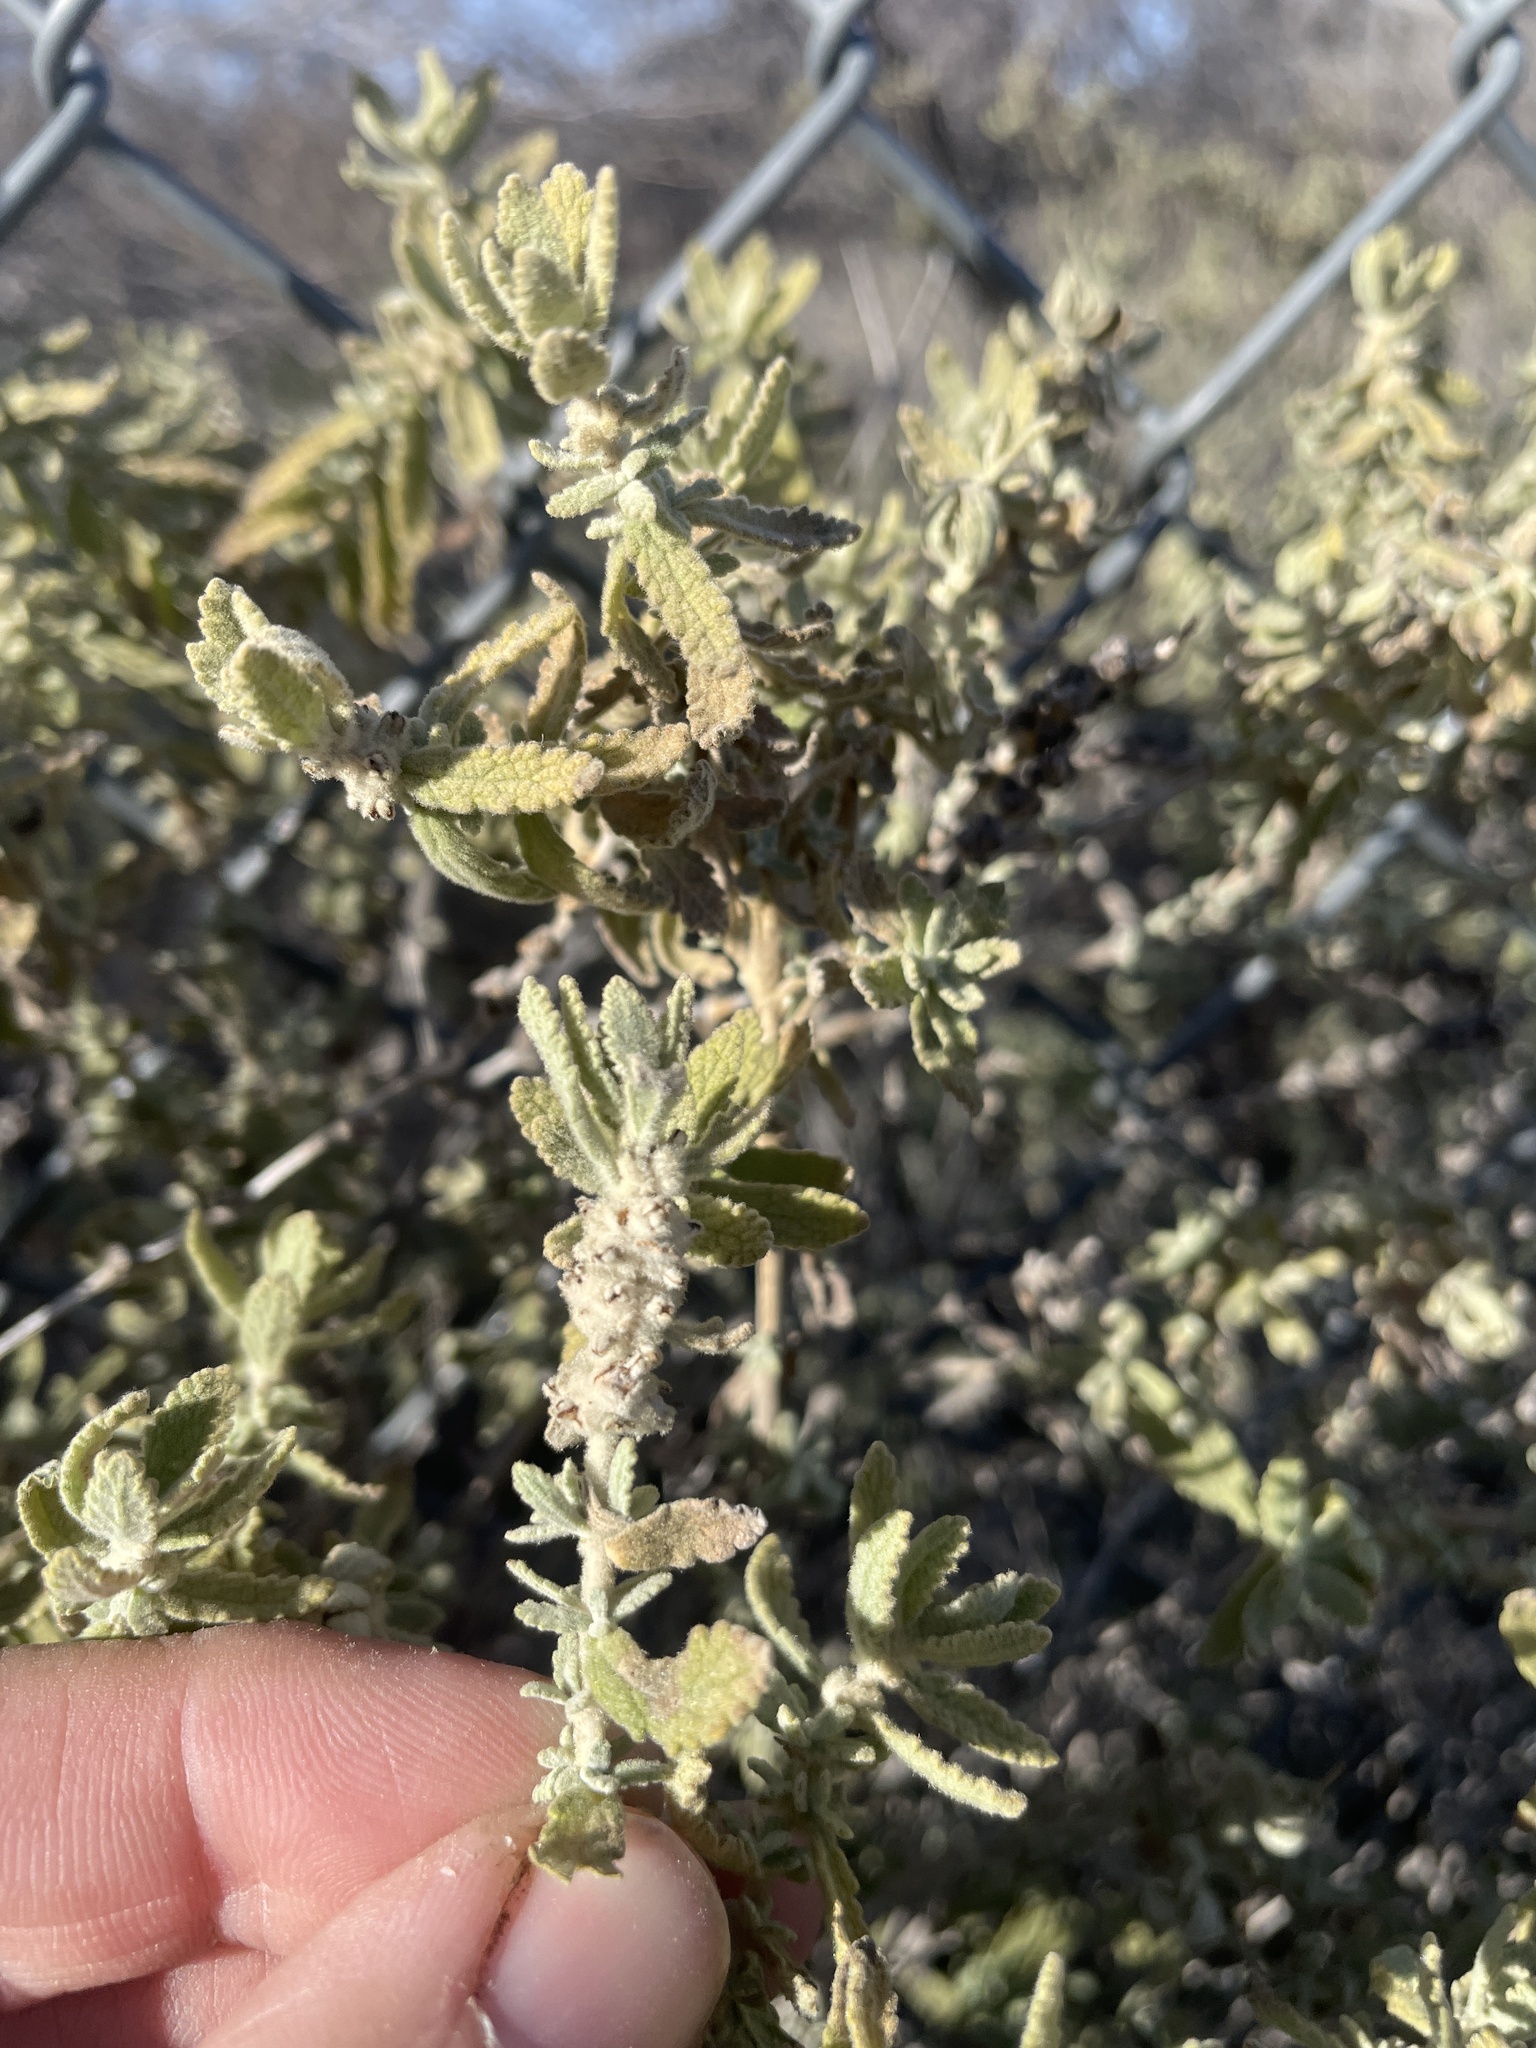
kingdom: Plantae
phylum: Tracheophyta
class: Magnoliopsida
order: Lamiales
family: Scrophulariaceae
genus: Buddleja
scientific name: Buddleja scordioides
